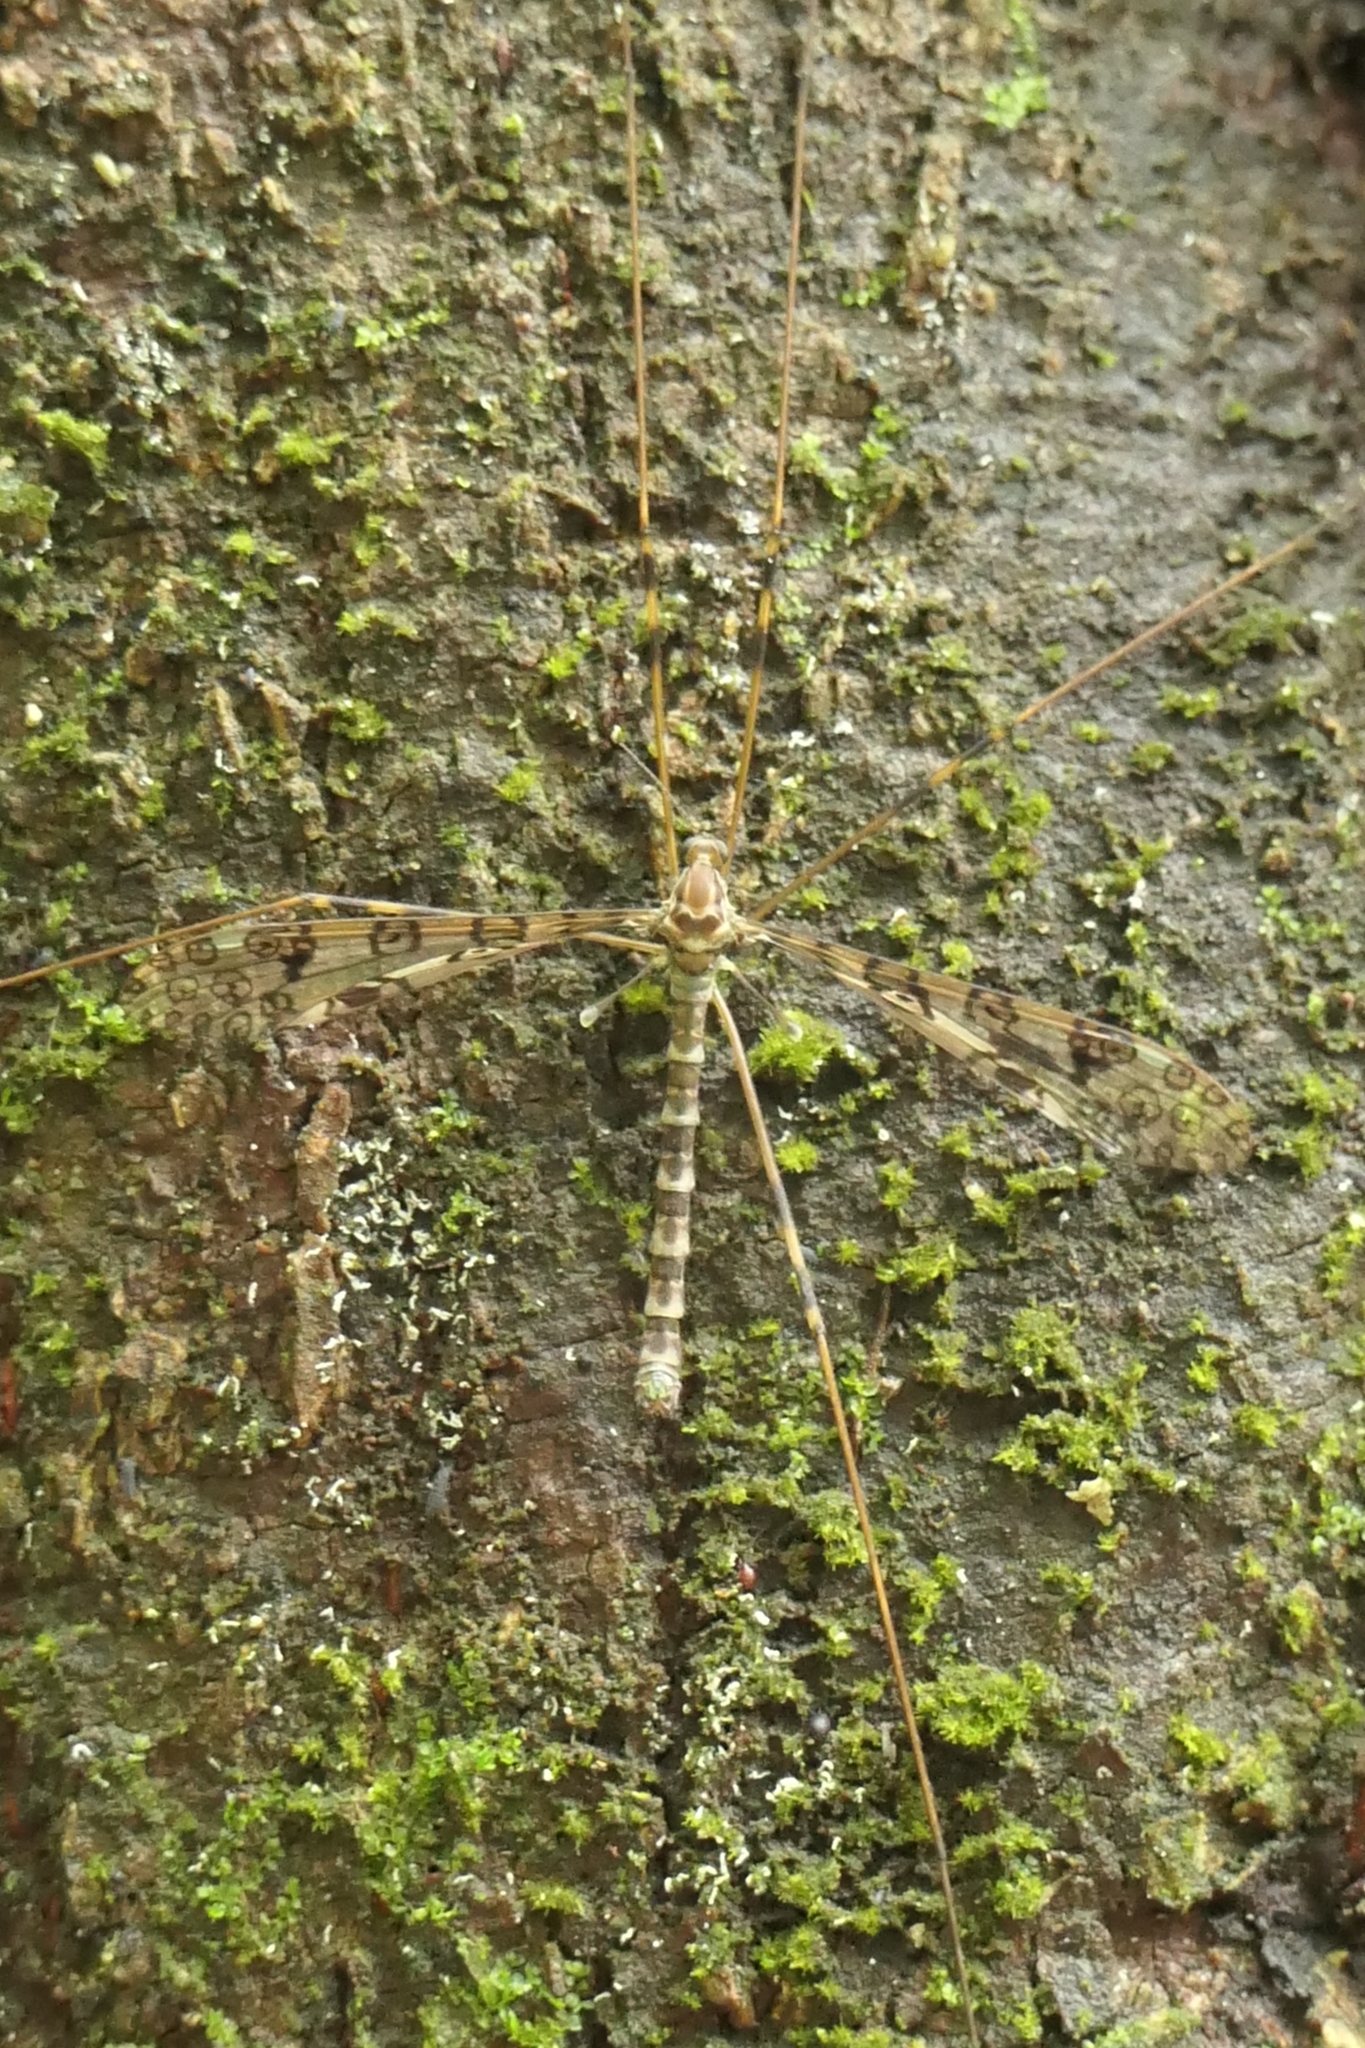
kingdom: Animalia
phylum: Arthropoda
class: Insecta
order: Diptera
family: Limoniidae
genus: Austrolimnophila
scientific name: Austrolimnophila argus
